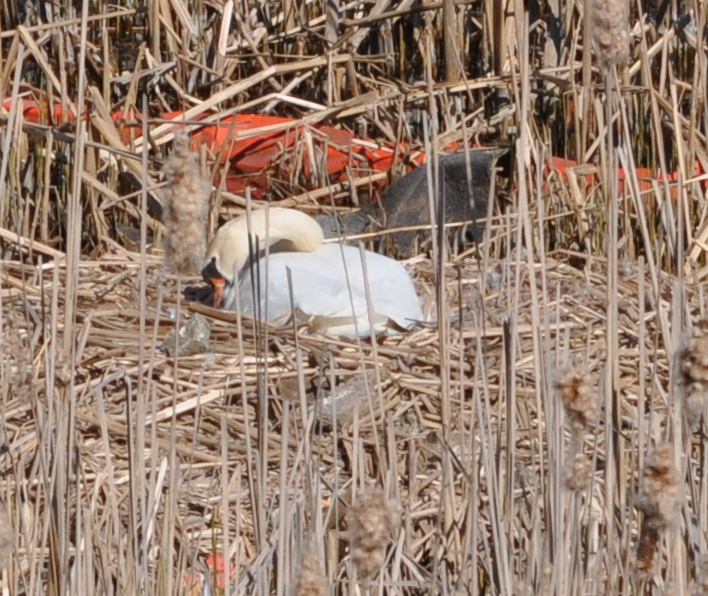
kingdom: Animalia
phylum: Chordata
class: Aves
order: Anseriformes
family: Anatidae
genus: Cygnus
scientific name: Cygnus olor
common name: Mute swan
